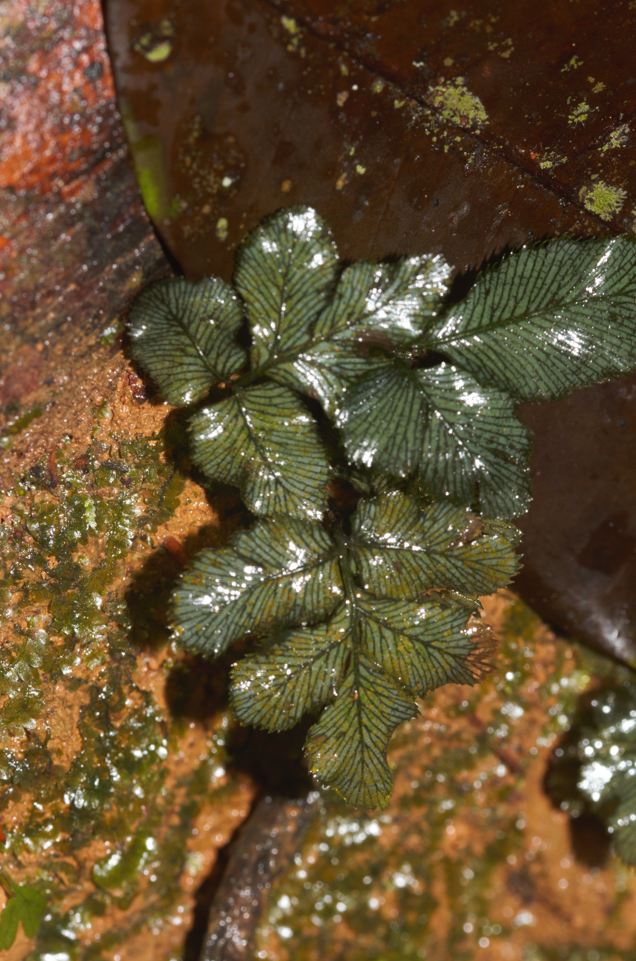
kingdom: Plantae
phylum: Tracheophyta
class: Polypodiopsida
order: Hymenophyllales
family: Hymenophyllaceae
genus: Trichomanes
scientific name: Trichomanes pinnatum
